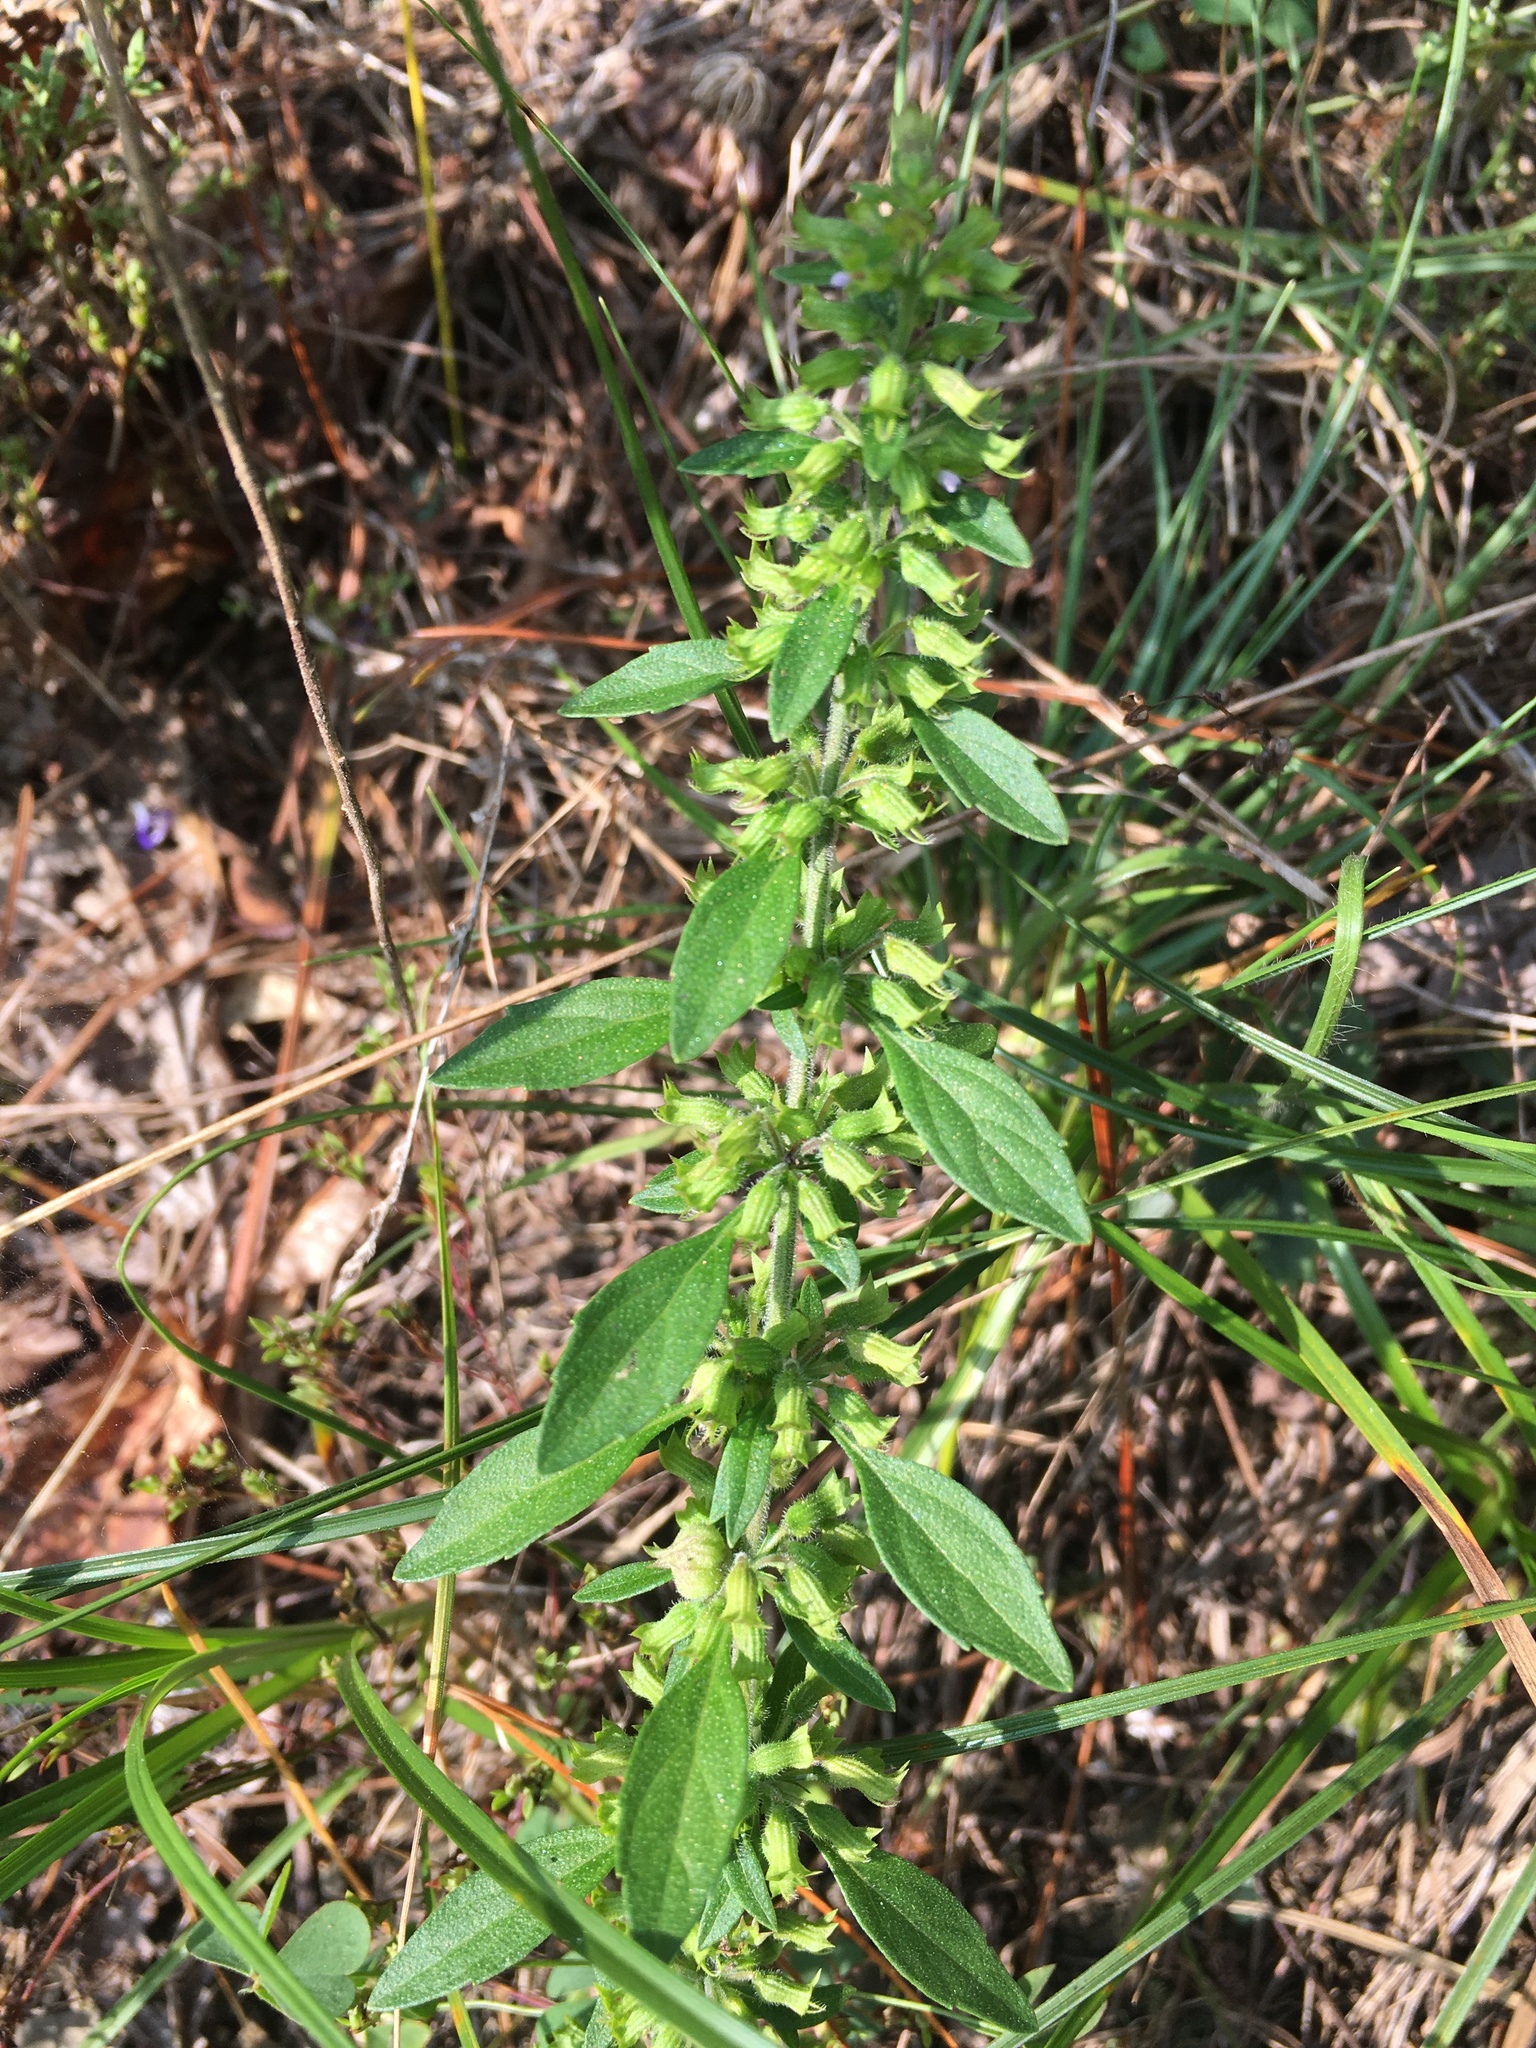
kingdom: Plantae
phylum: Tracheophyta
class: Magnoliopsida
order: Lamiales
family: Lamiaceae
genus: Hedeoma
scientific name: Hedeoma pulegioides
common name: American false pennyroyal
